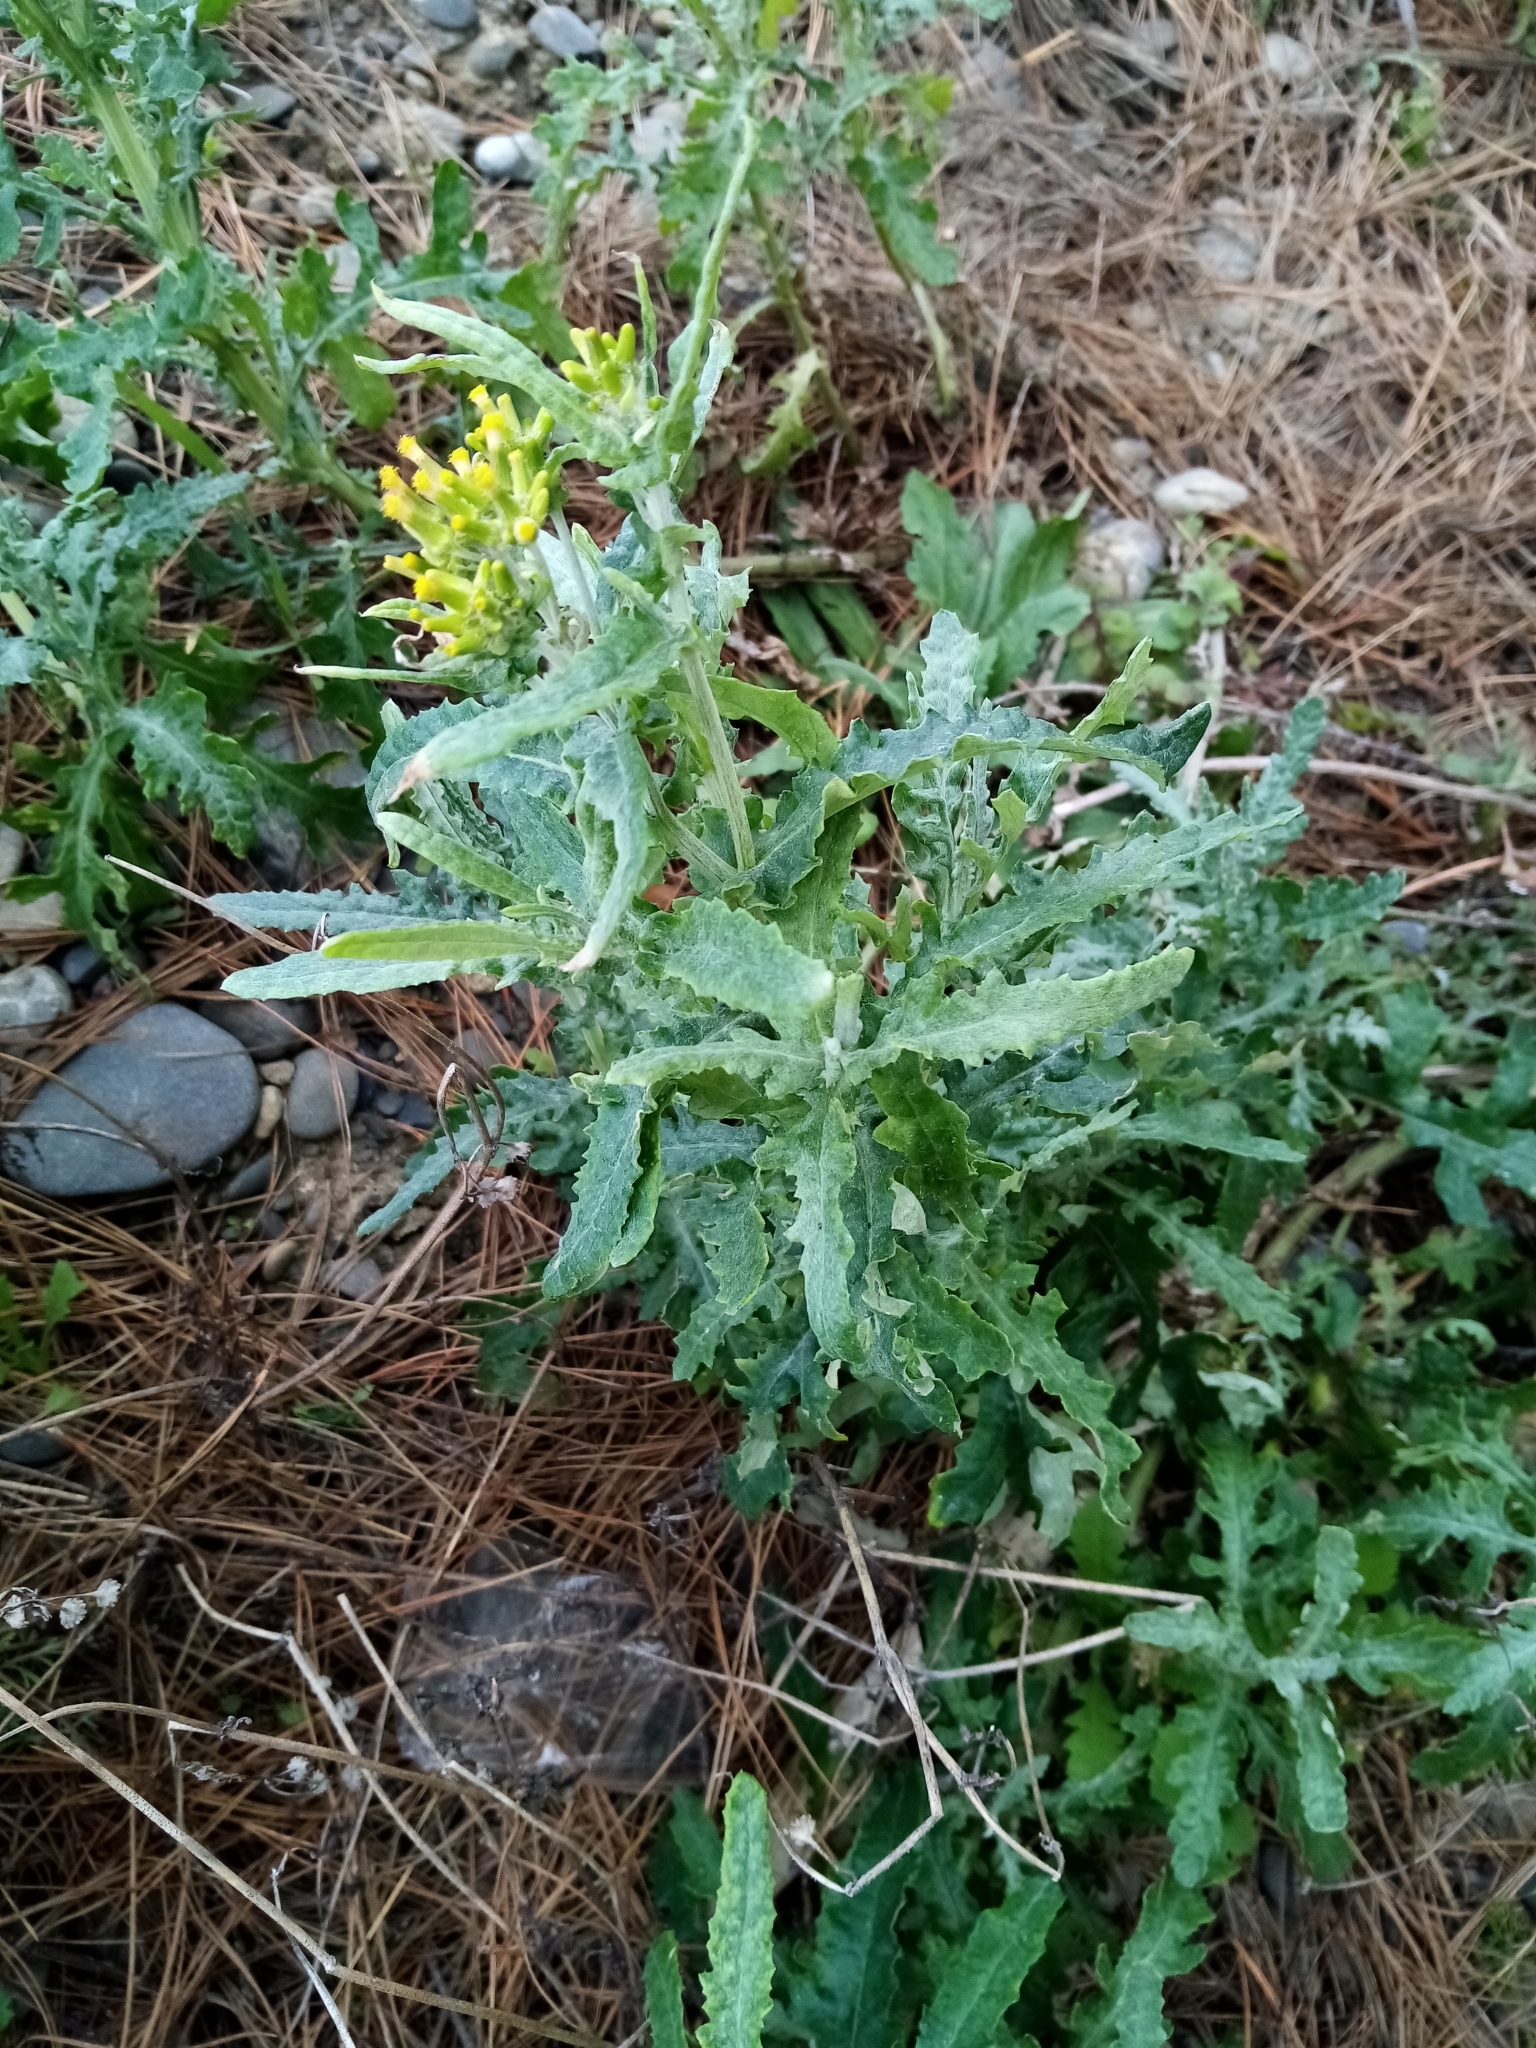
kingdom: Plantae
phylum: Tracheophyta
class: Magnoliopsida
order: Asterales
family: Asteraceae
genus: Senecio
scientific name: Senecio glomeratus
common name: Cutleaf burnweed
